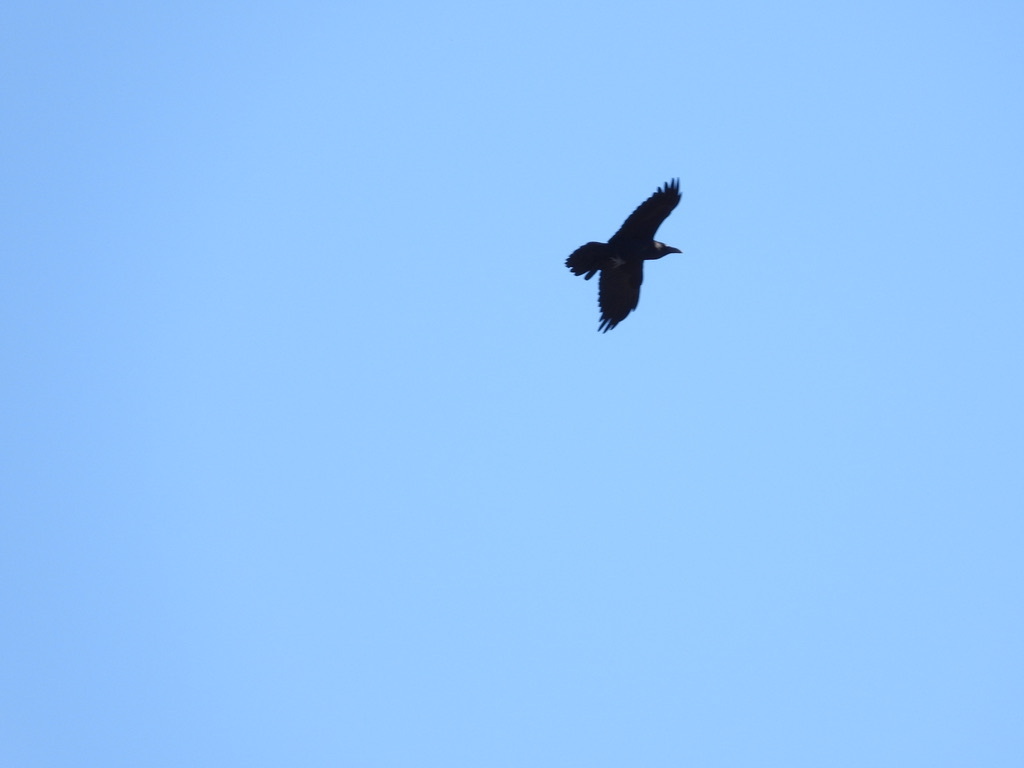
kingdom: Animalia
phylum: Chordata
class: Aves
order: Passeriformes
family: Corvidae
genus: Corvus
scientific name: Corvus corax
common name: Common raven
